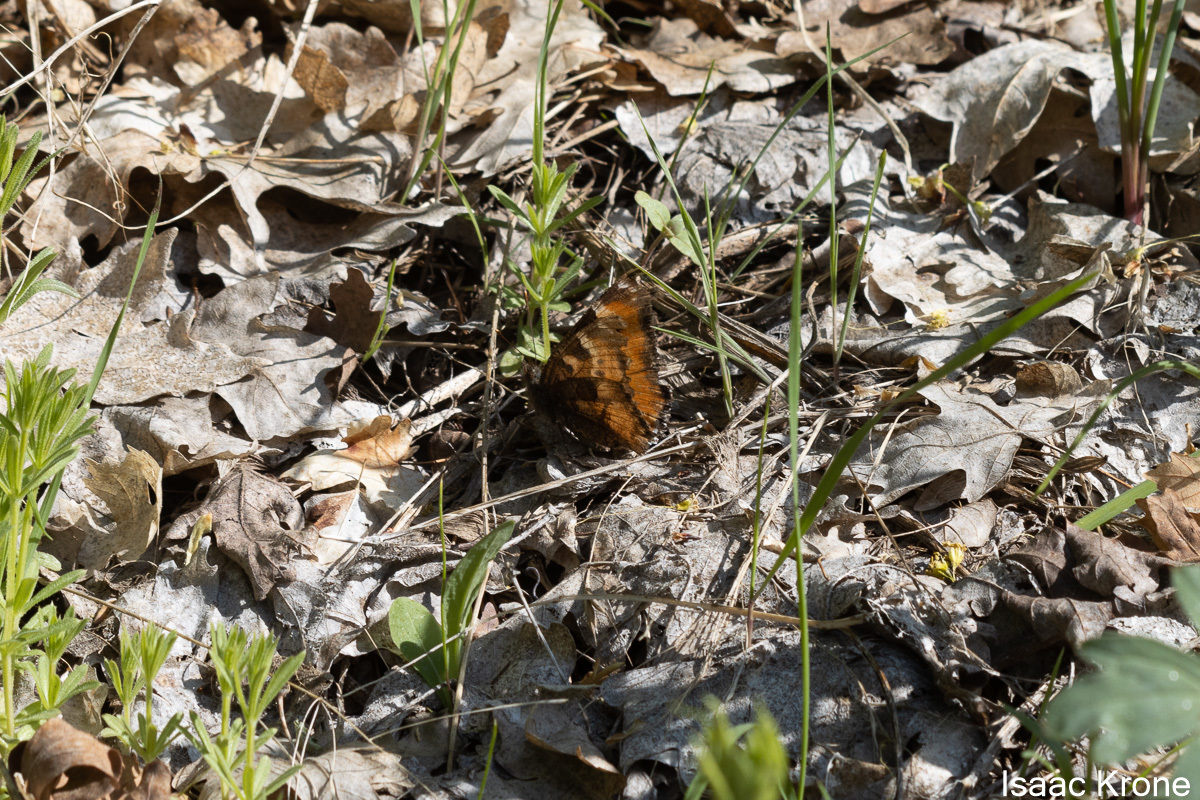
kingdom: Animalia
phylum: Arthropoda
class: Insecta
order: Lepidoptera
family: Nymphalidae
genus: Nymphalis
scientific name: Nymphalis californica
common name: California tortoiseshell
